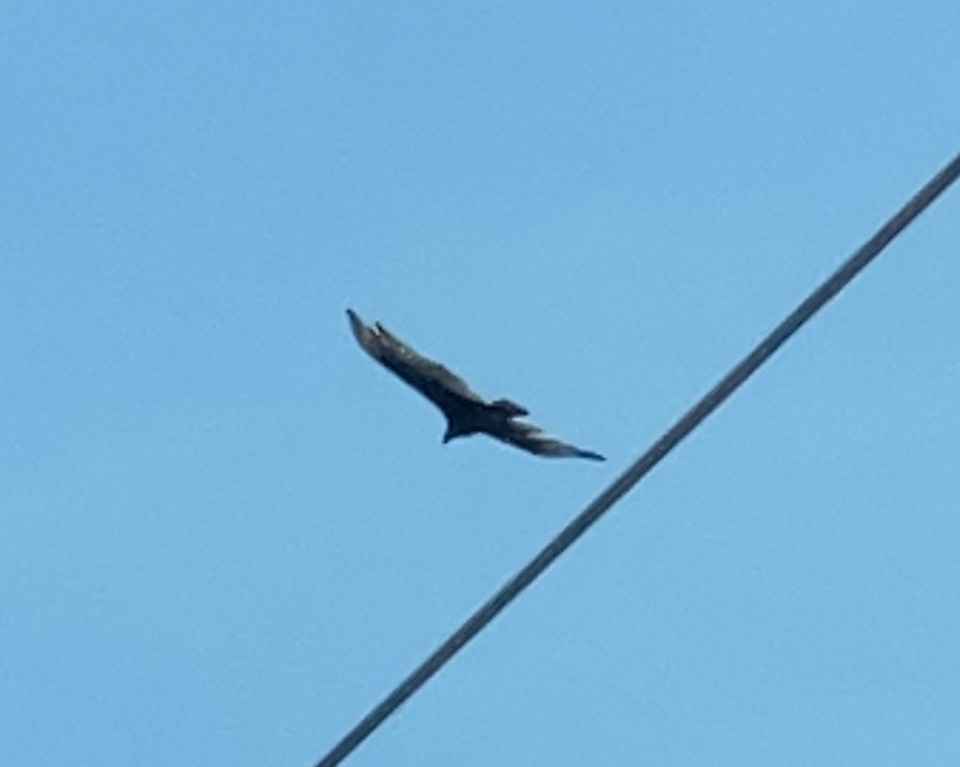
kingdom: Animalia
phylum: Chordata
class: Aves
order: Accipitriformes
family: Cathartidae
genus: Cathartes
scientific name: Cathartes aura
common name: Turkey vulture
